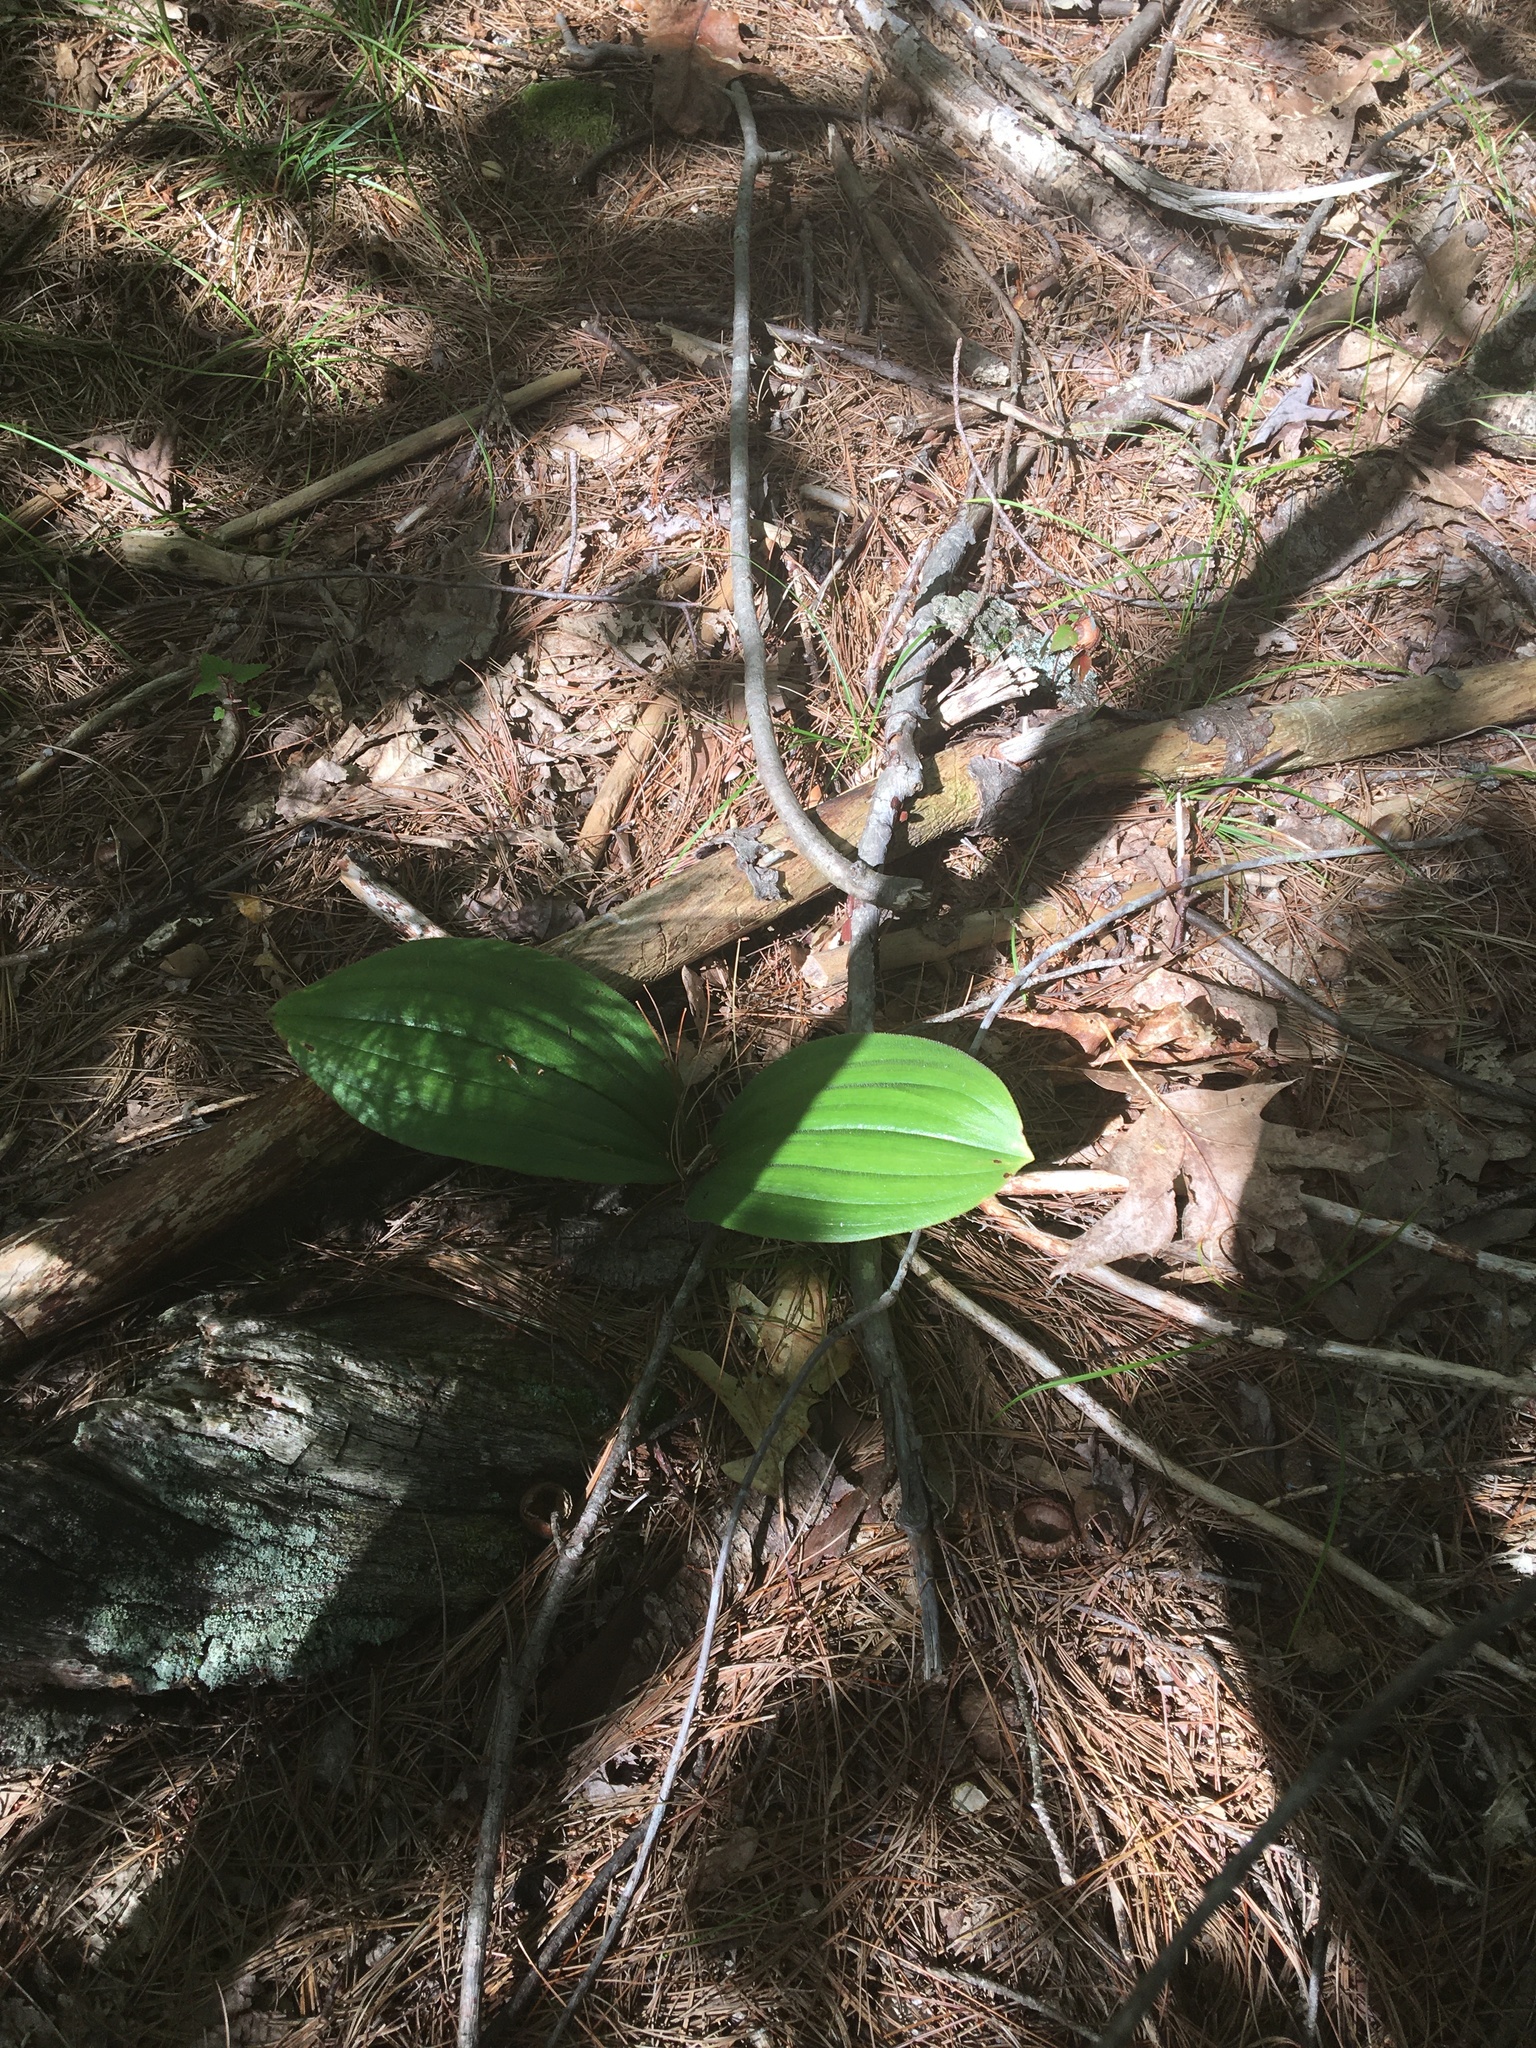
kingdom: Plantae
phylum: Tracheophyta
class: Liliopsida
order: Asparagales
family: Orchidaceae
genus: Cypripedium
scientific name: Cypripedium acaule
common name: Pink lady's-slipper
